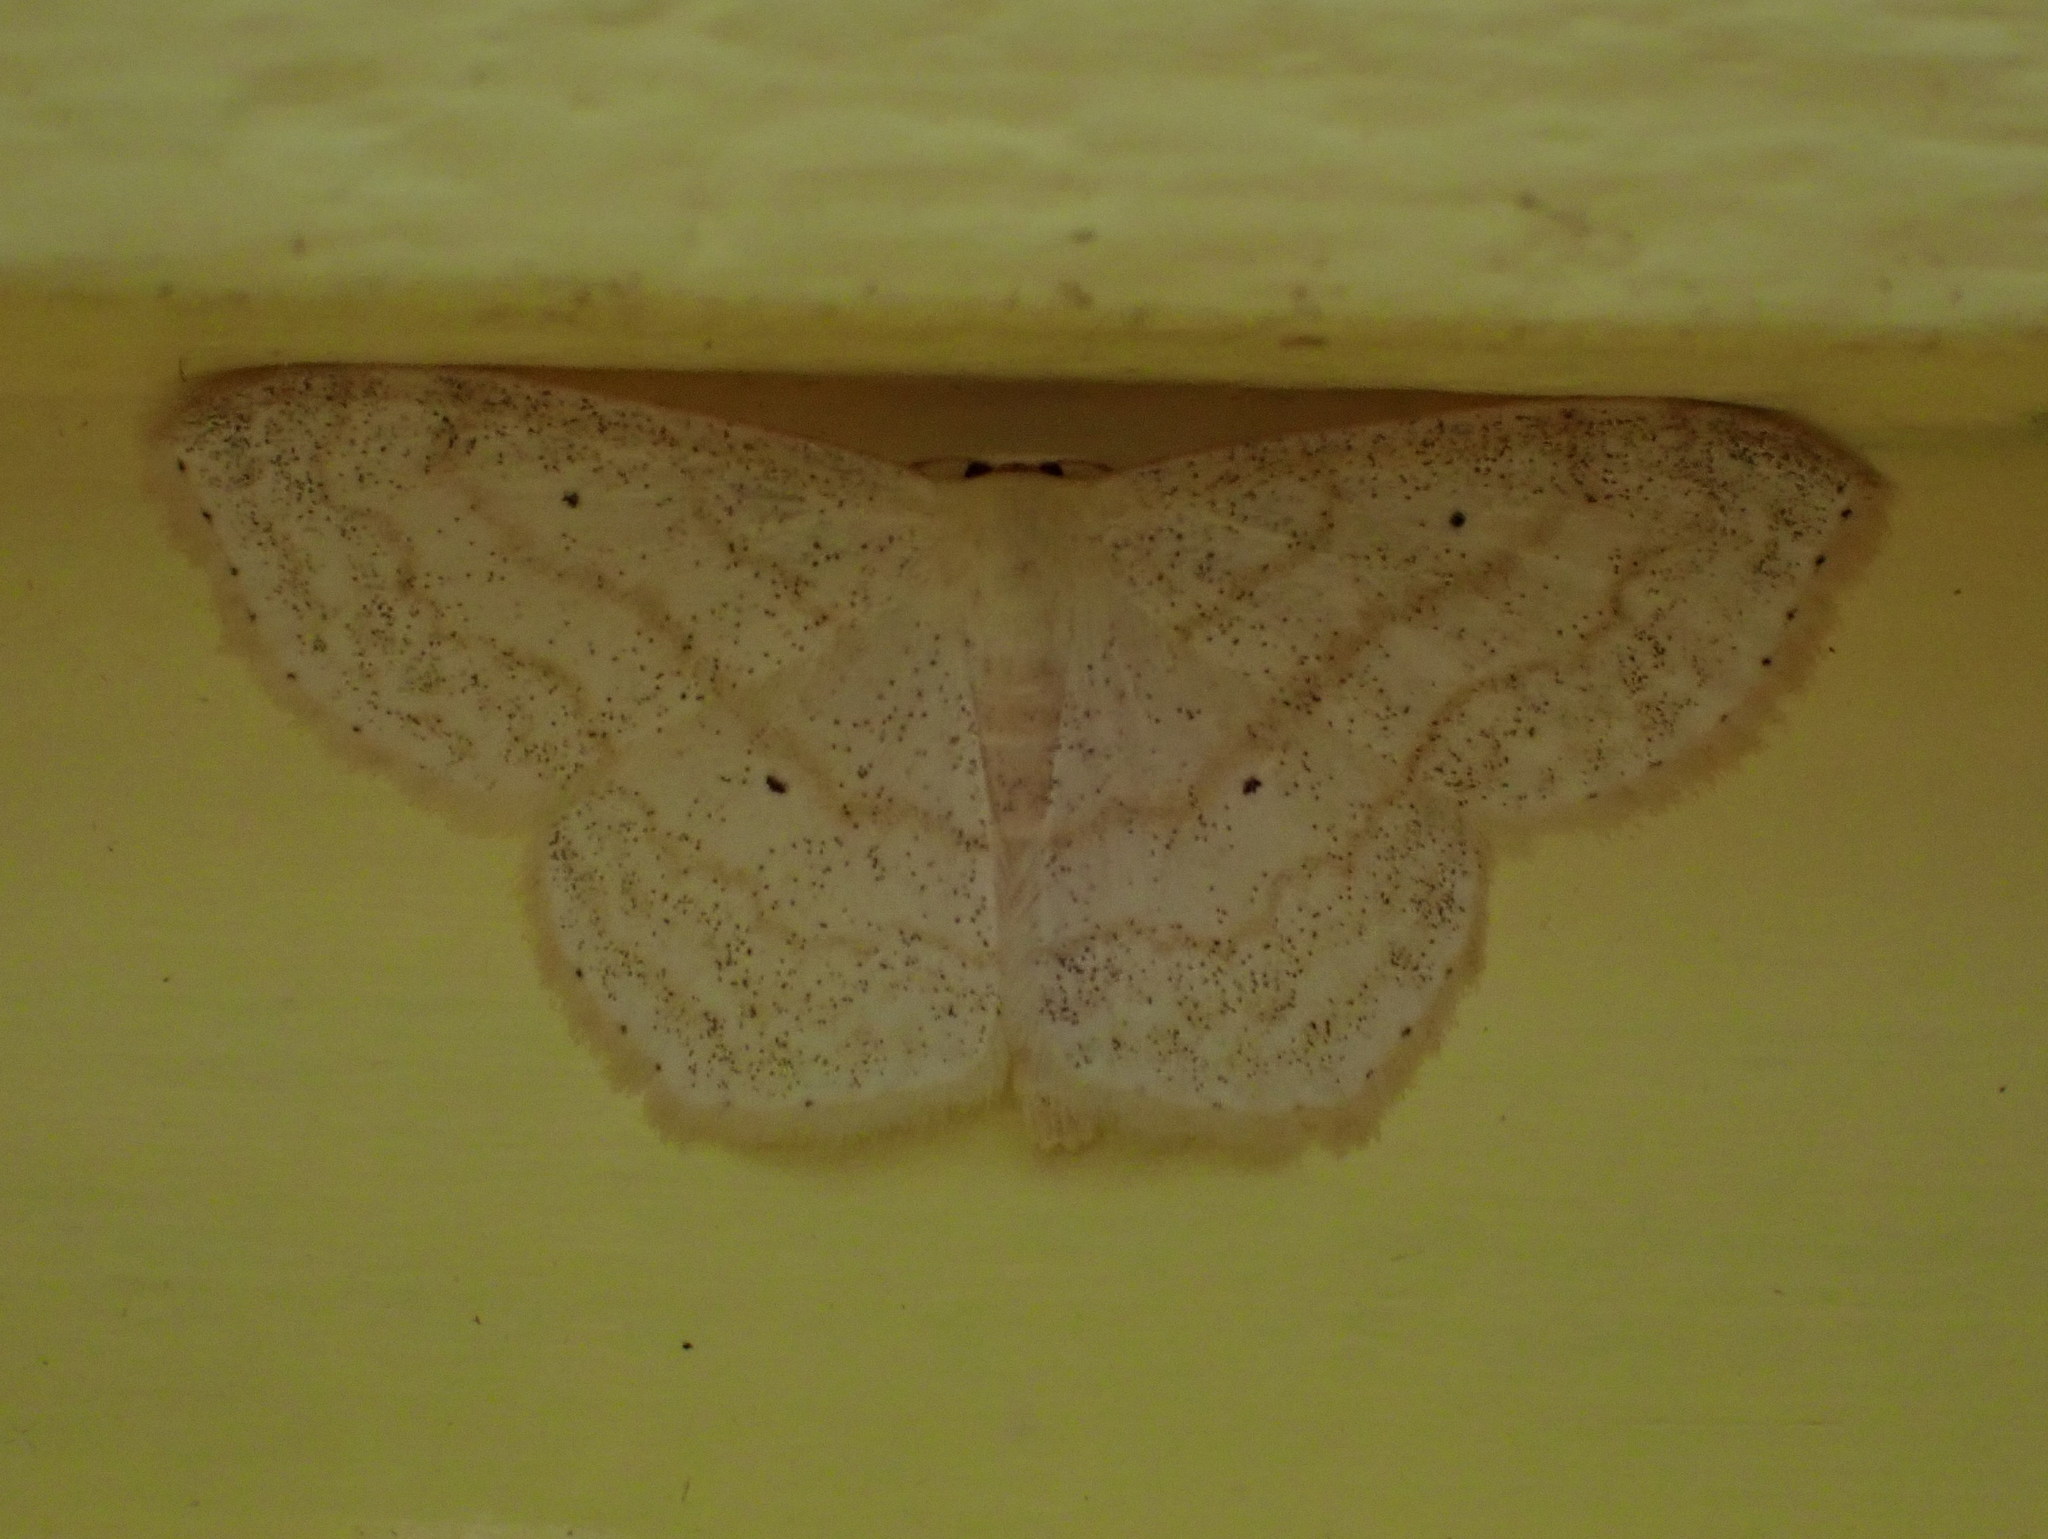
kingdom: Animalia
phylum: Arthropoda
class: Insecta
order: Lepidoptera
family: Geometridae
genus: Scopula
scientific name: Scopula limboundata
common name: Large lace border
